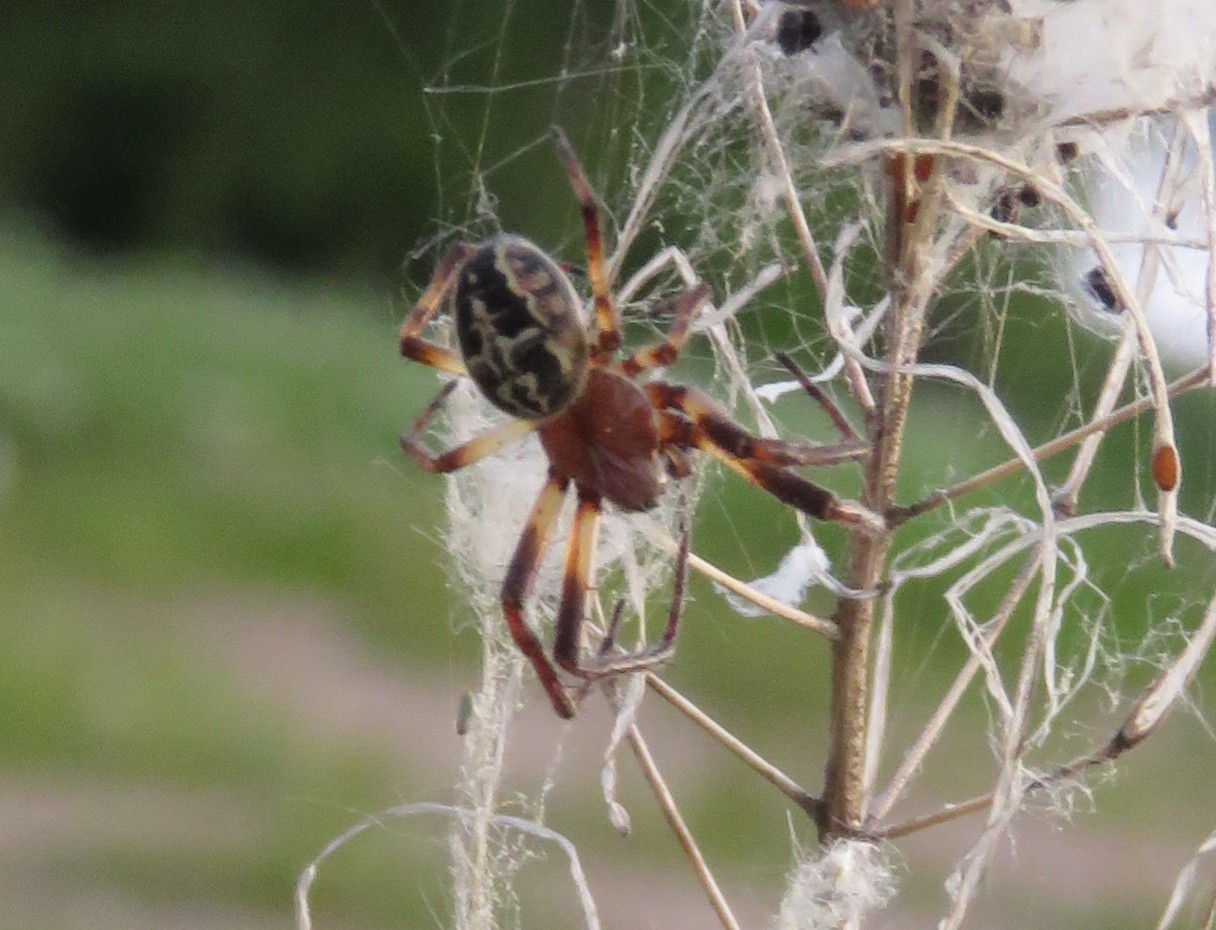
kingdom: Animalia
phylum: Arthropoda
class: Arachnida
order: Araneae
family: Araneidae
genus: Larinioides
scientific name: Larinioides cornutus
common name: Furrow orbweaver
